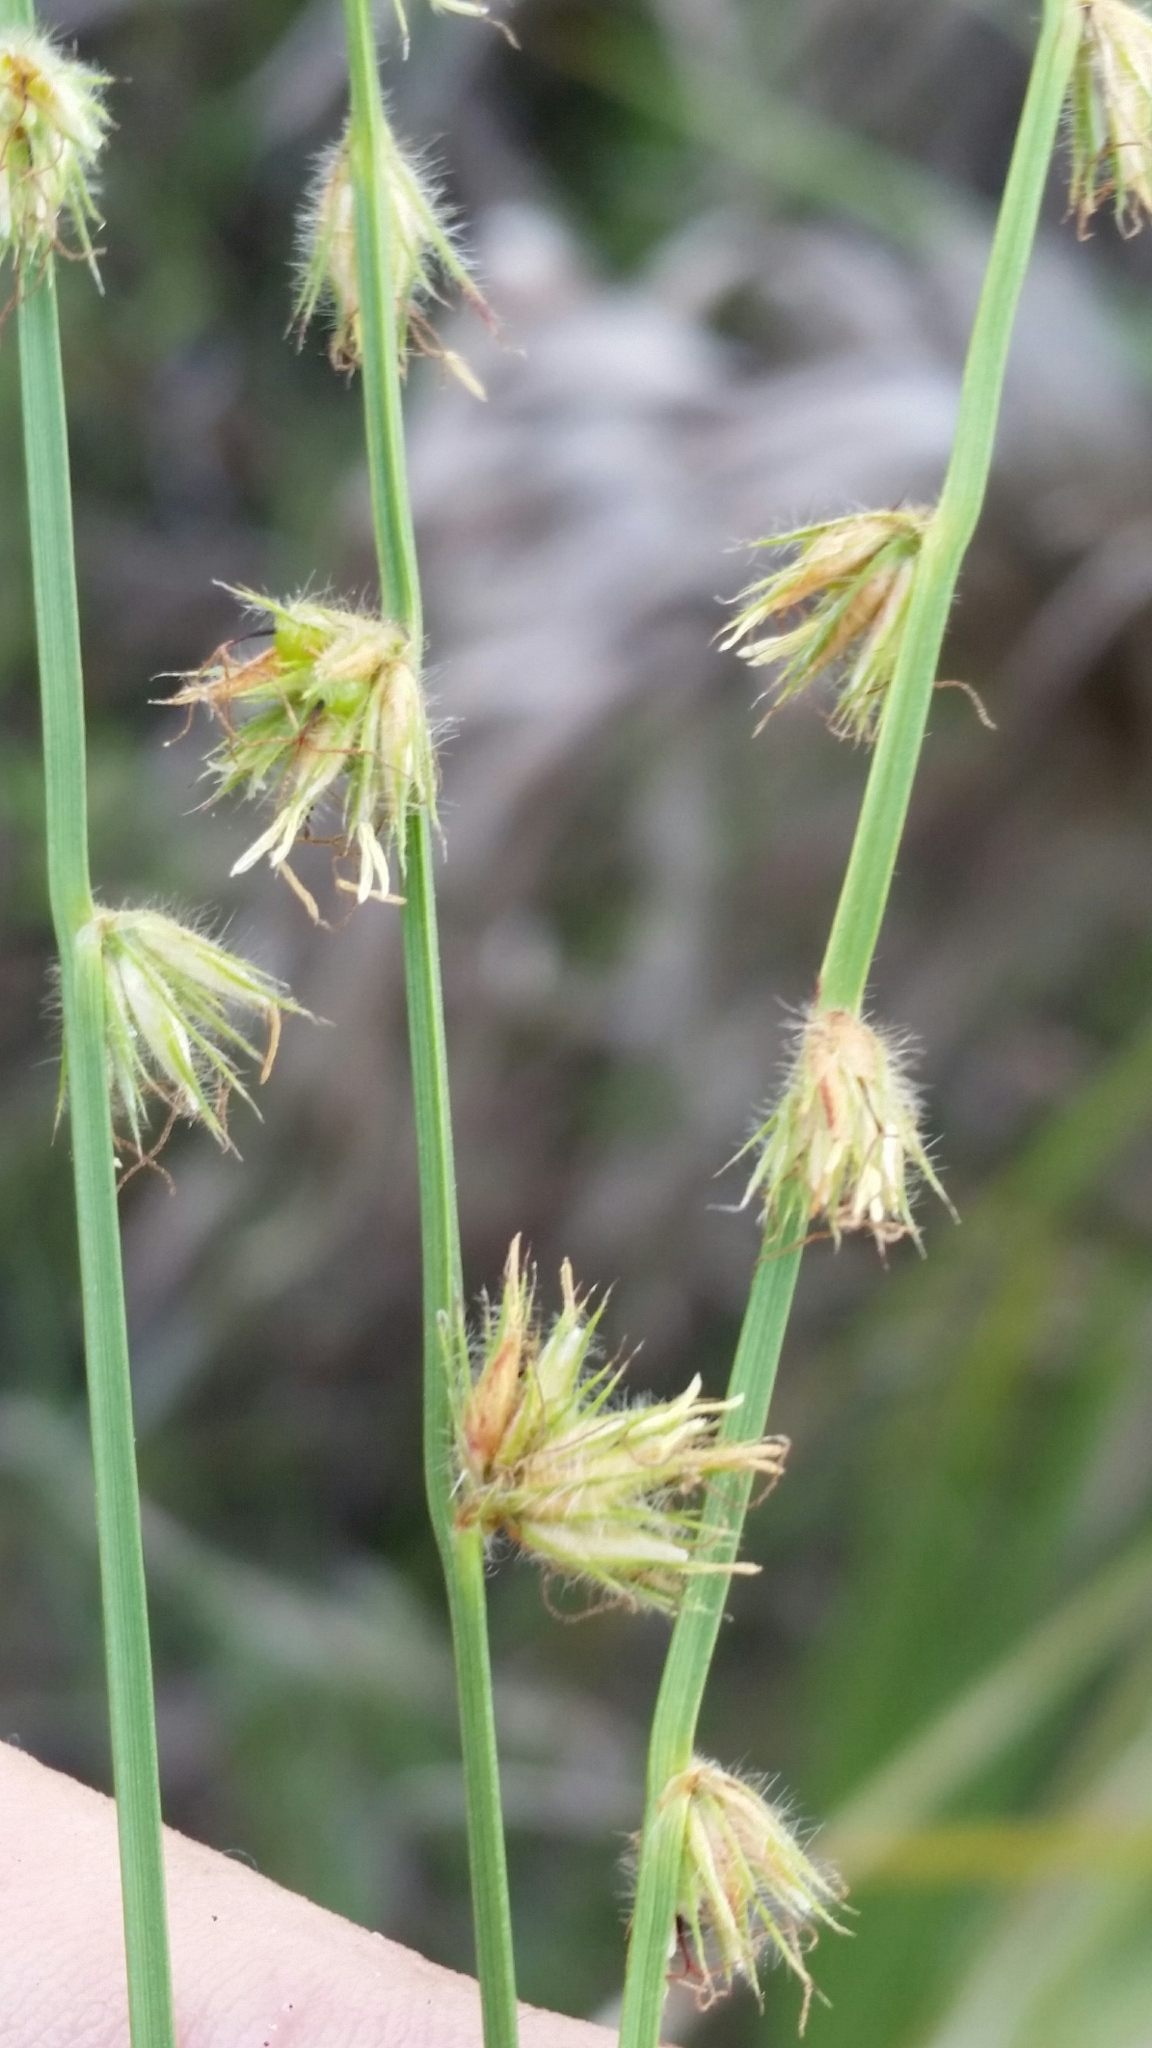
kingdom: Plantae
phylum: Tracheophyta
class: Liliopsida
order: Poales
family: Cyperaceae
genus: Scleria
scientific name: Scleria distans
